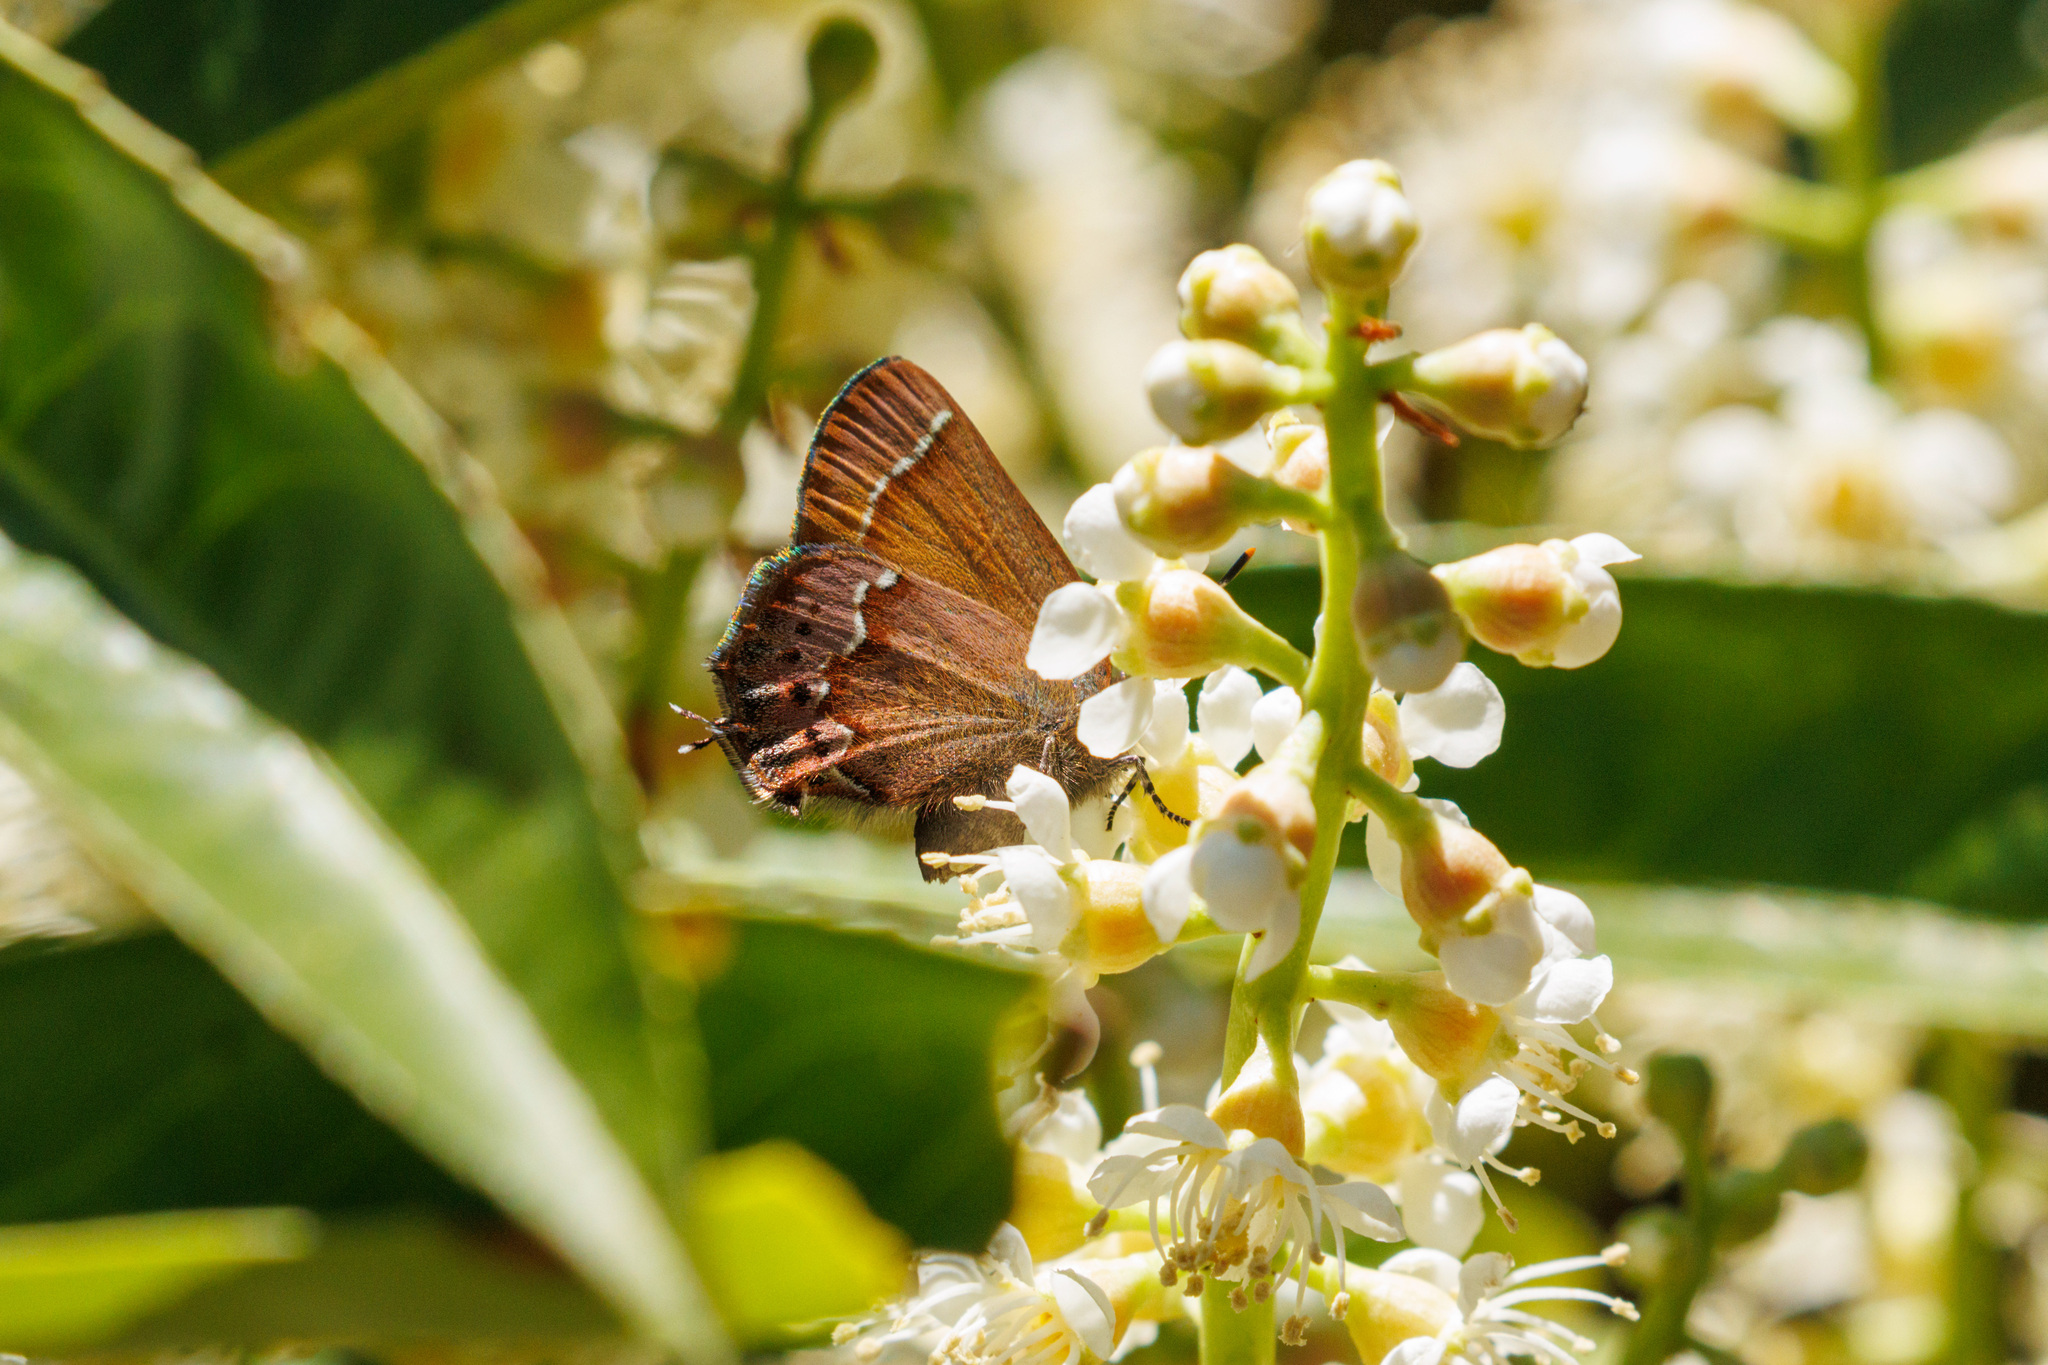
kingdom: Animalia
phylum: Arthropoda
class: Insecta
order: Lepidoptera
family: Lycaenidae
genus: Mitoura
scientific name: Mitoura gryneus
